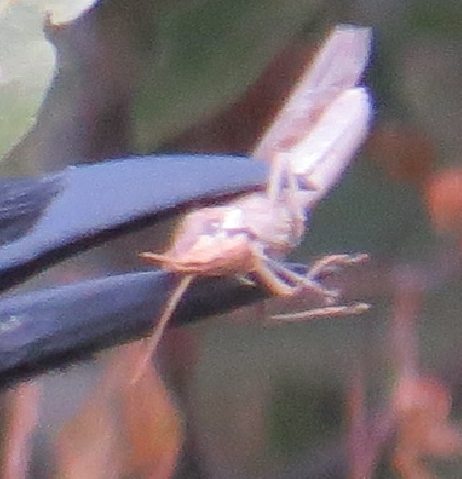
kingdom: Animalia
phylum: Arthropoda
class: Insecta
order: Orthoptera
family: Acrididae
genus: Schistocerca
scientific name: Schistocerca nitens
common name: Vagrant grasshopper
